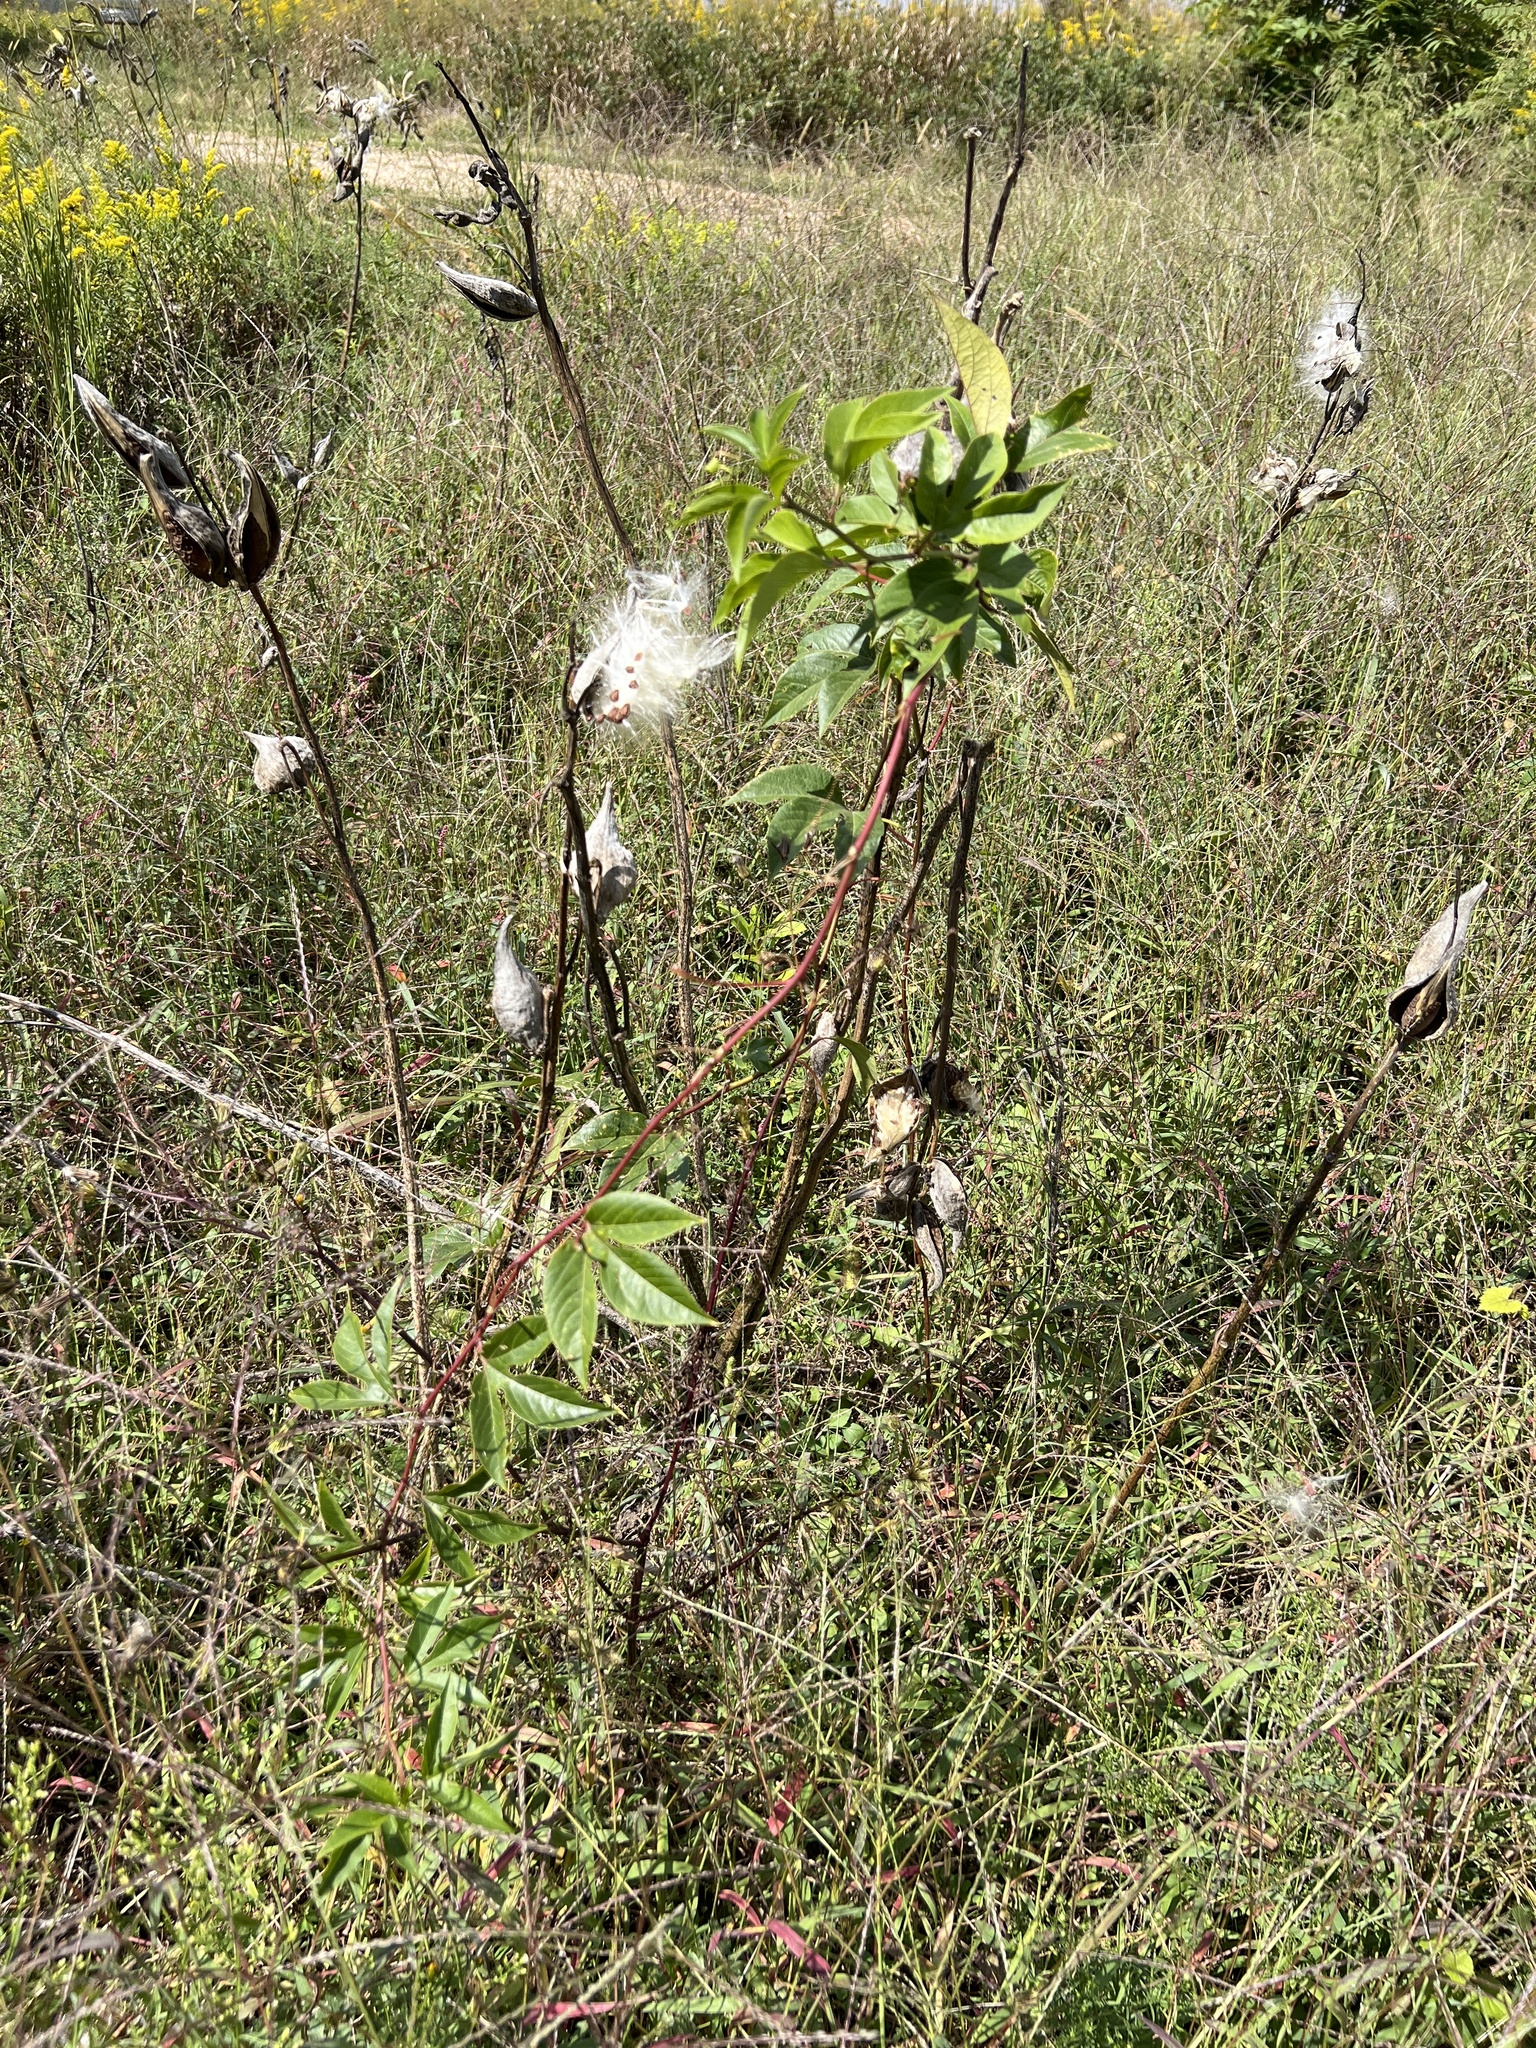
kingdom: Plantae
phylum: Tracheophyta
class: Magnoliopsida
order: Malpighiales
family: Passifloraceae
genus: Passiflora
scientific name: Passiflora incarnata
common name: Apricot-vine
